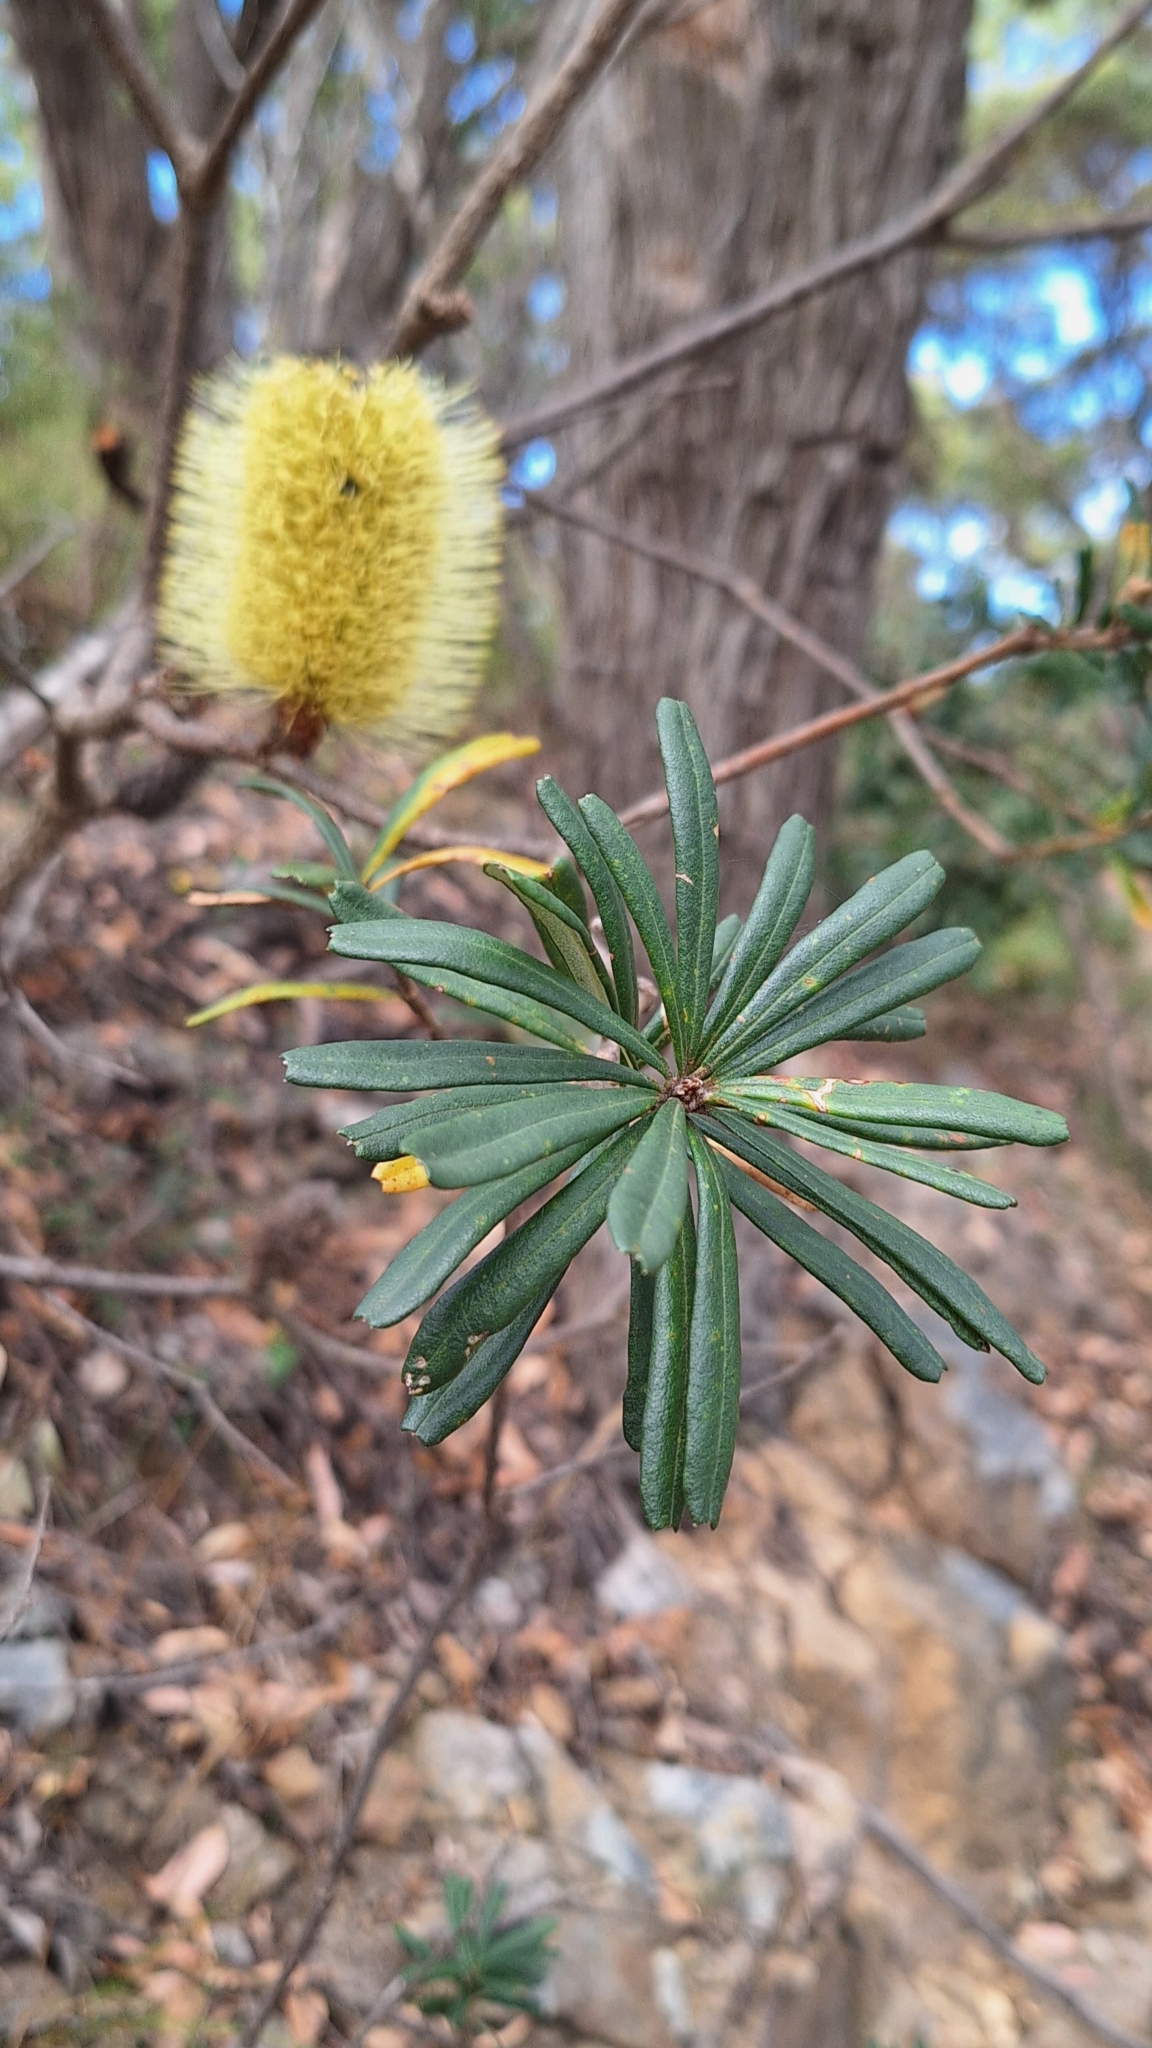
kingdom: Plantae
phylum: Tracheophyta
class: Magnoliopsida
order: Proteales
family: Proteaceae
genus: Banksia
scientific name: Banksia marginata
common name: Silver banksia
